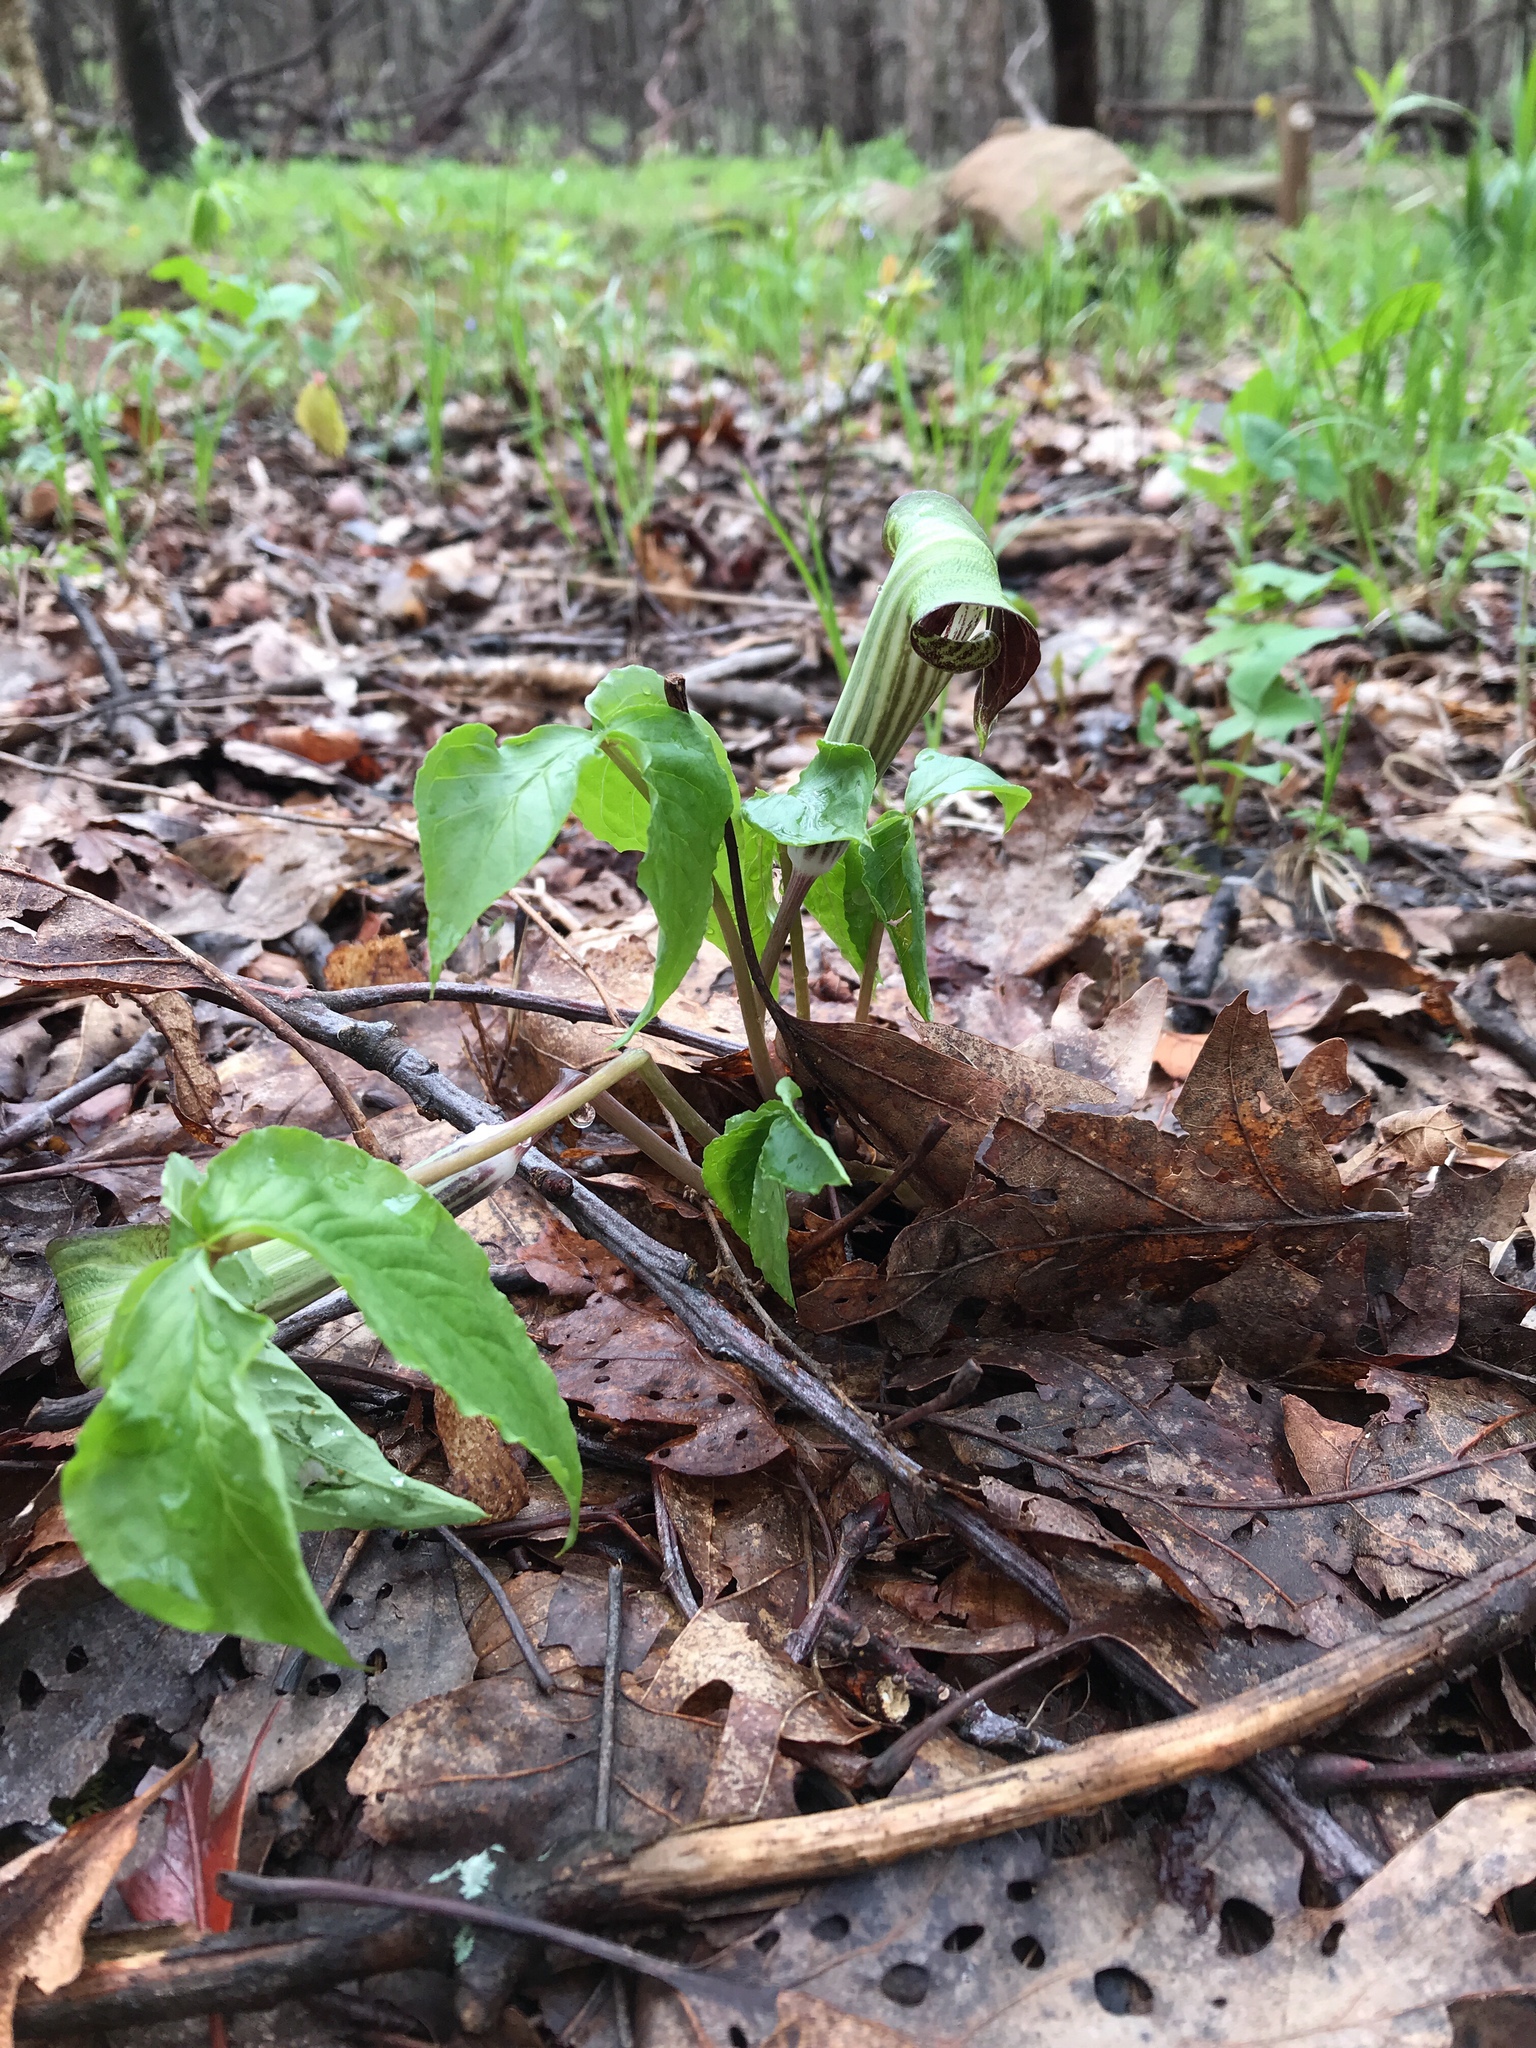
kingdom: Plantae
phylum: Tracheophyta
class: Liliopsida
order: Alismatales
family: Araceae
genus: Arisaema
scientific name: Arisaema triphyllum
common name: Jack-in-the-pulpit
